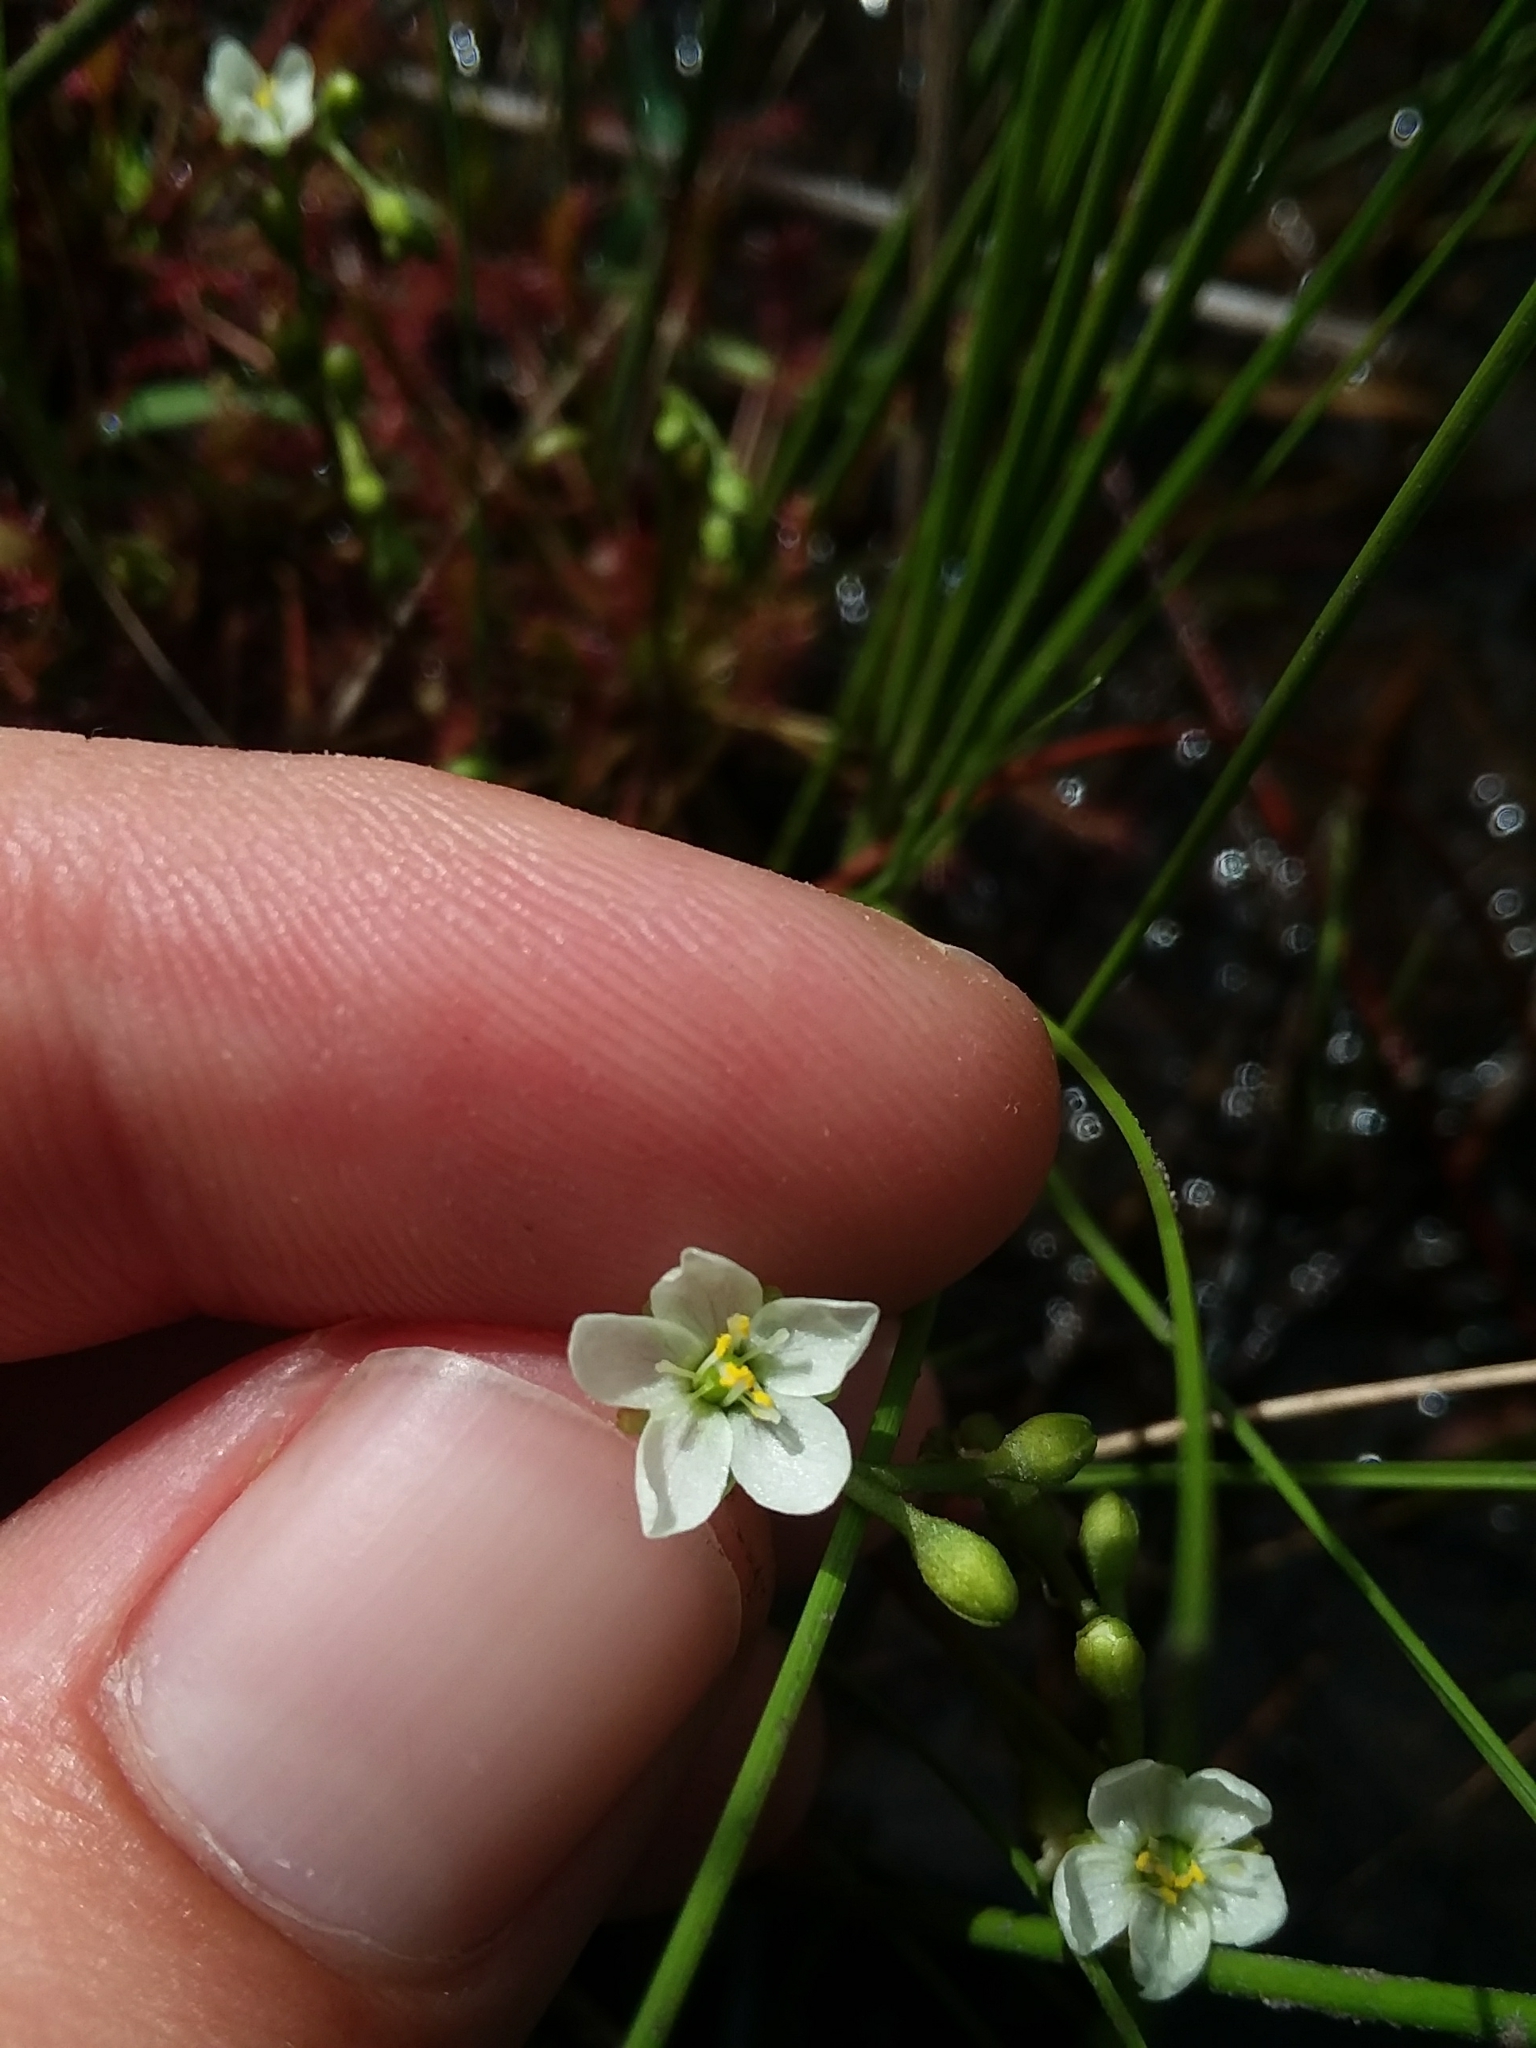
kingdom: Plantae
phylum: Tracheophyta
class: Magnoliopsida
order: Caryophyllales
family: Droseraceae
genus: Drosera
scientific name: Drosera intermedia
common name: Oblong-leaved sundew
